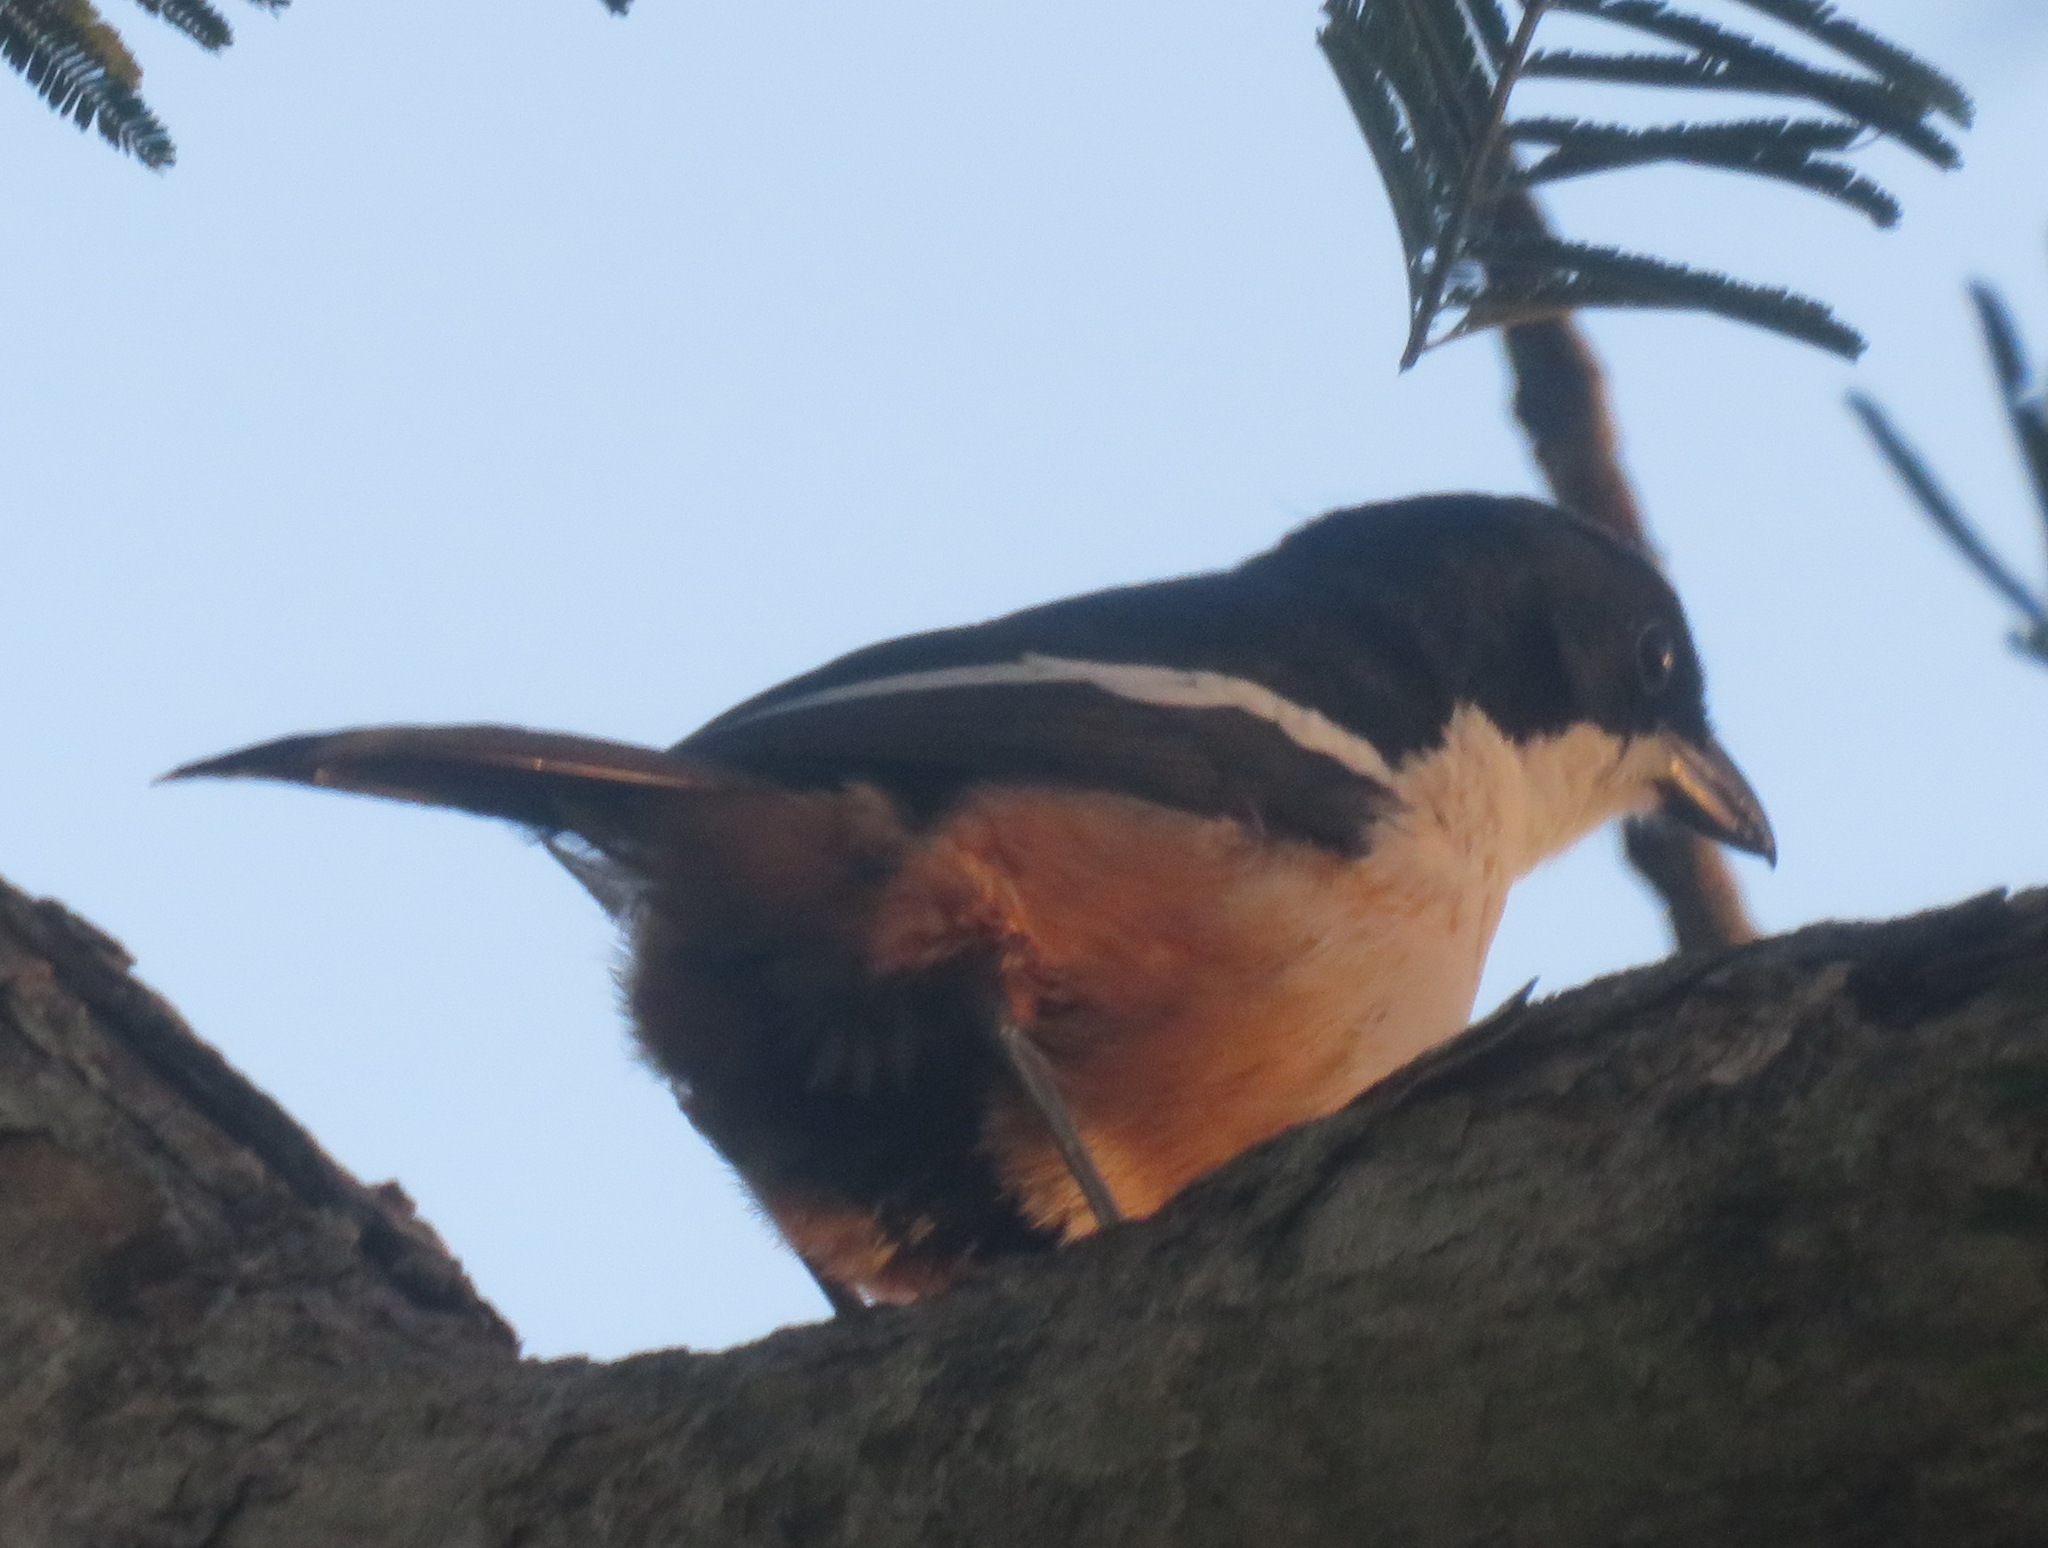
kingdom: Animalia
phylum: Chordata
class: Aves
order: Passeriformes
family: Malaconotidae
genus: Laniarius
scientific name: Laniarius ferrugineus
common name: Southern boubou
